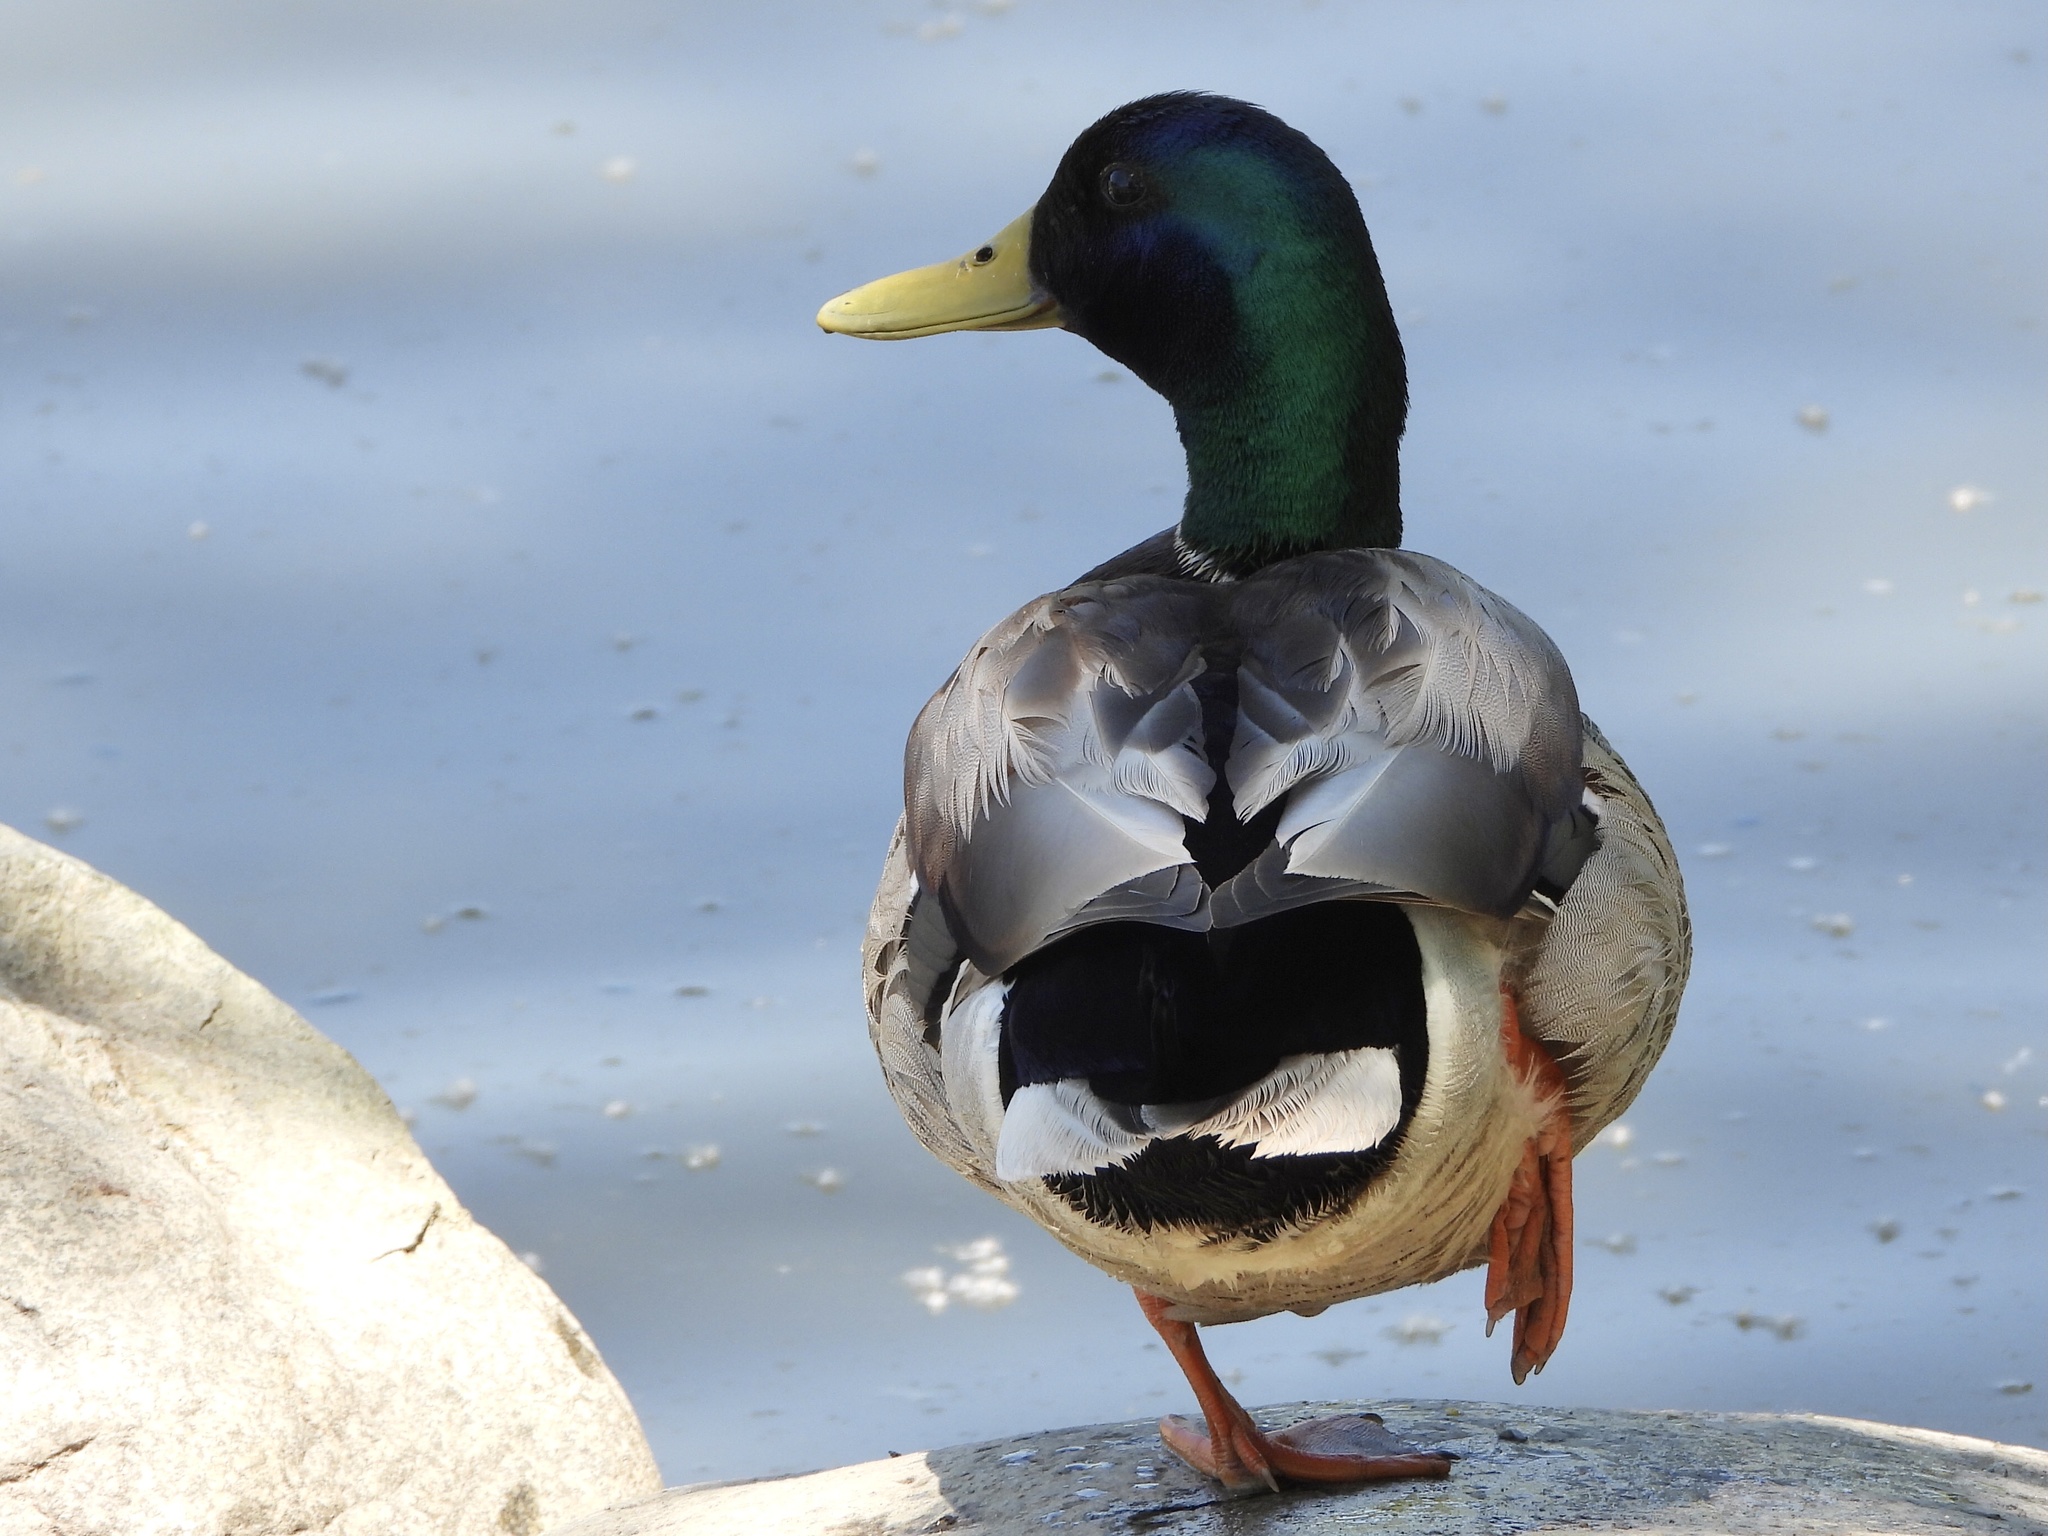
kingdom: Animalia
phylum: Chordata
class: Aves
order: Anseriformes
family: Anatidae
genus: Anas
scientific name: Anas platyrhynchos
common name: Mallard
